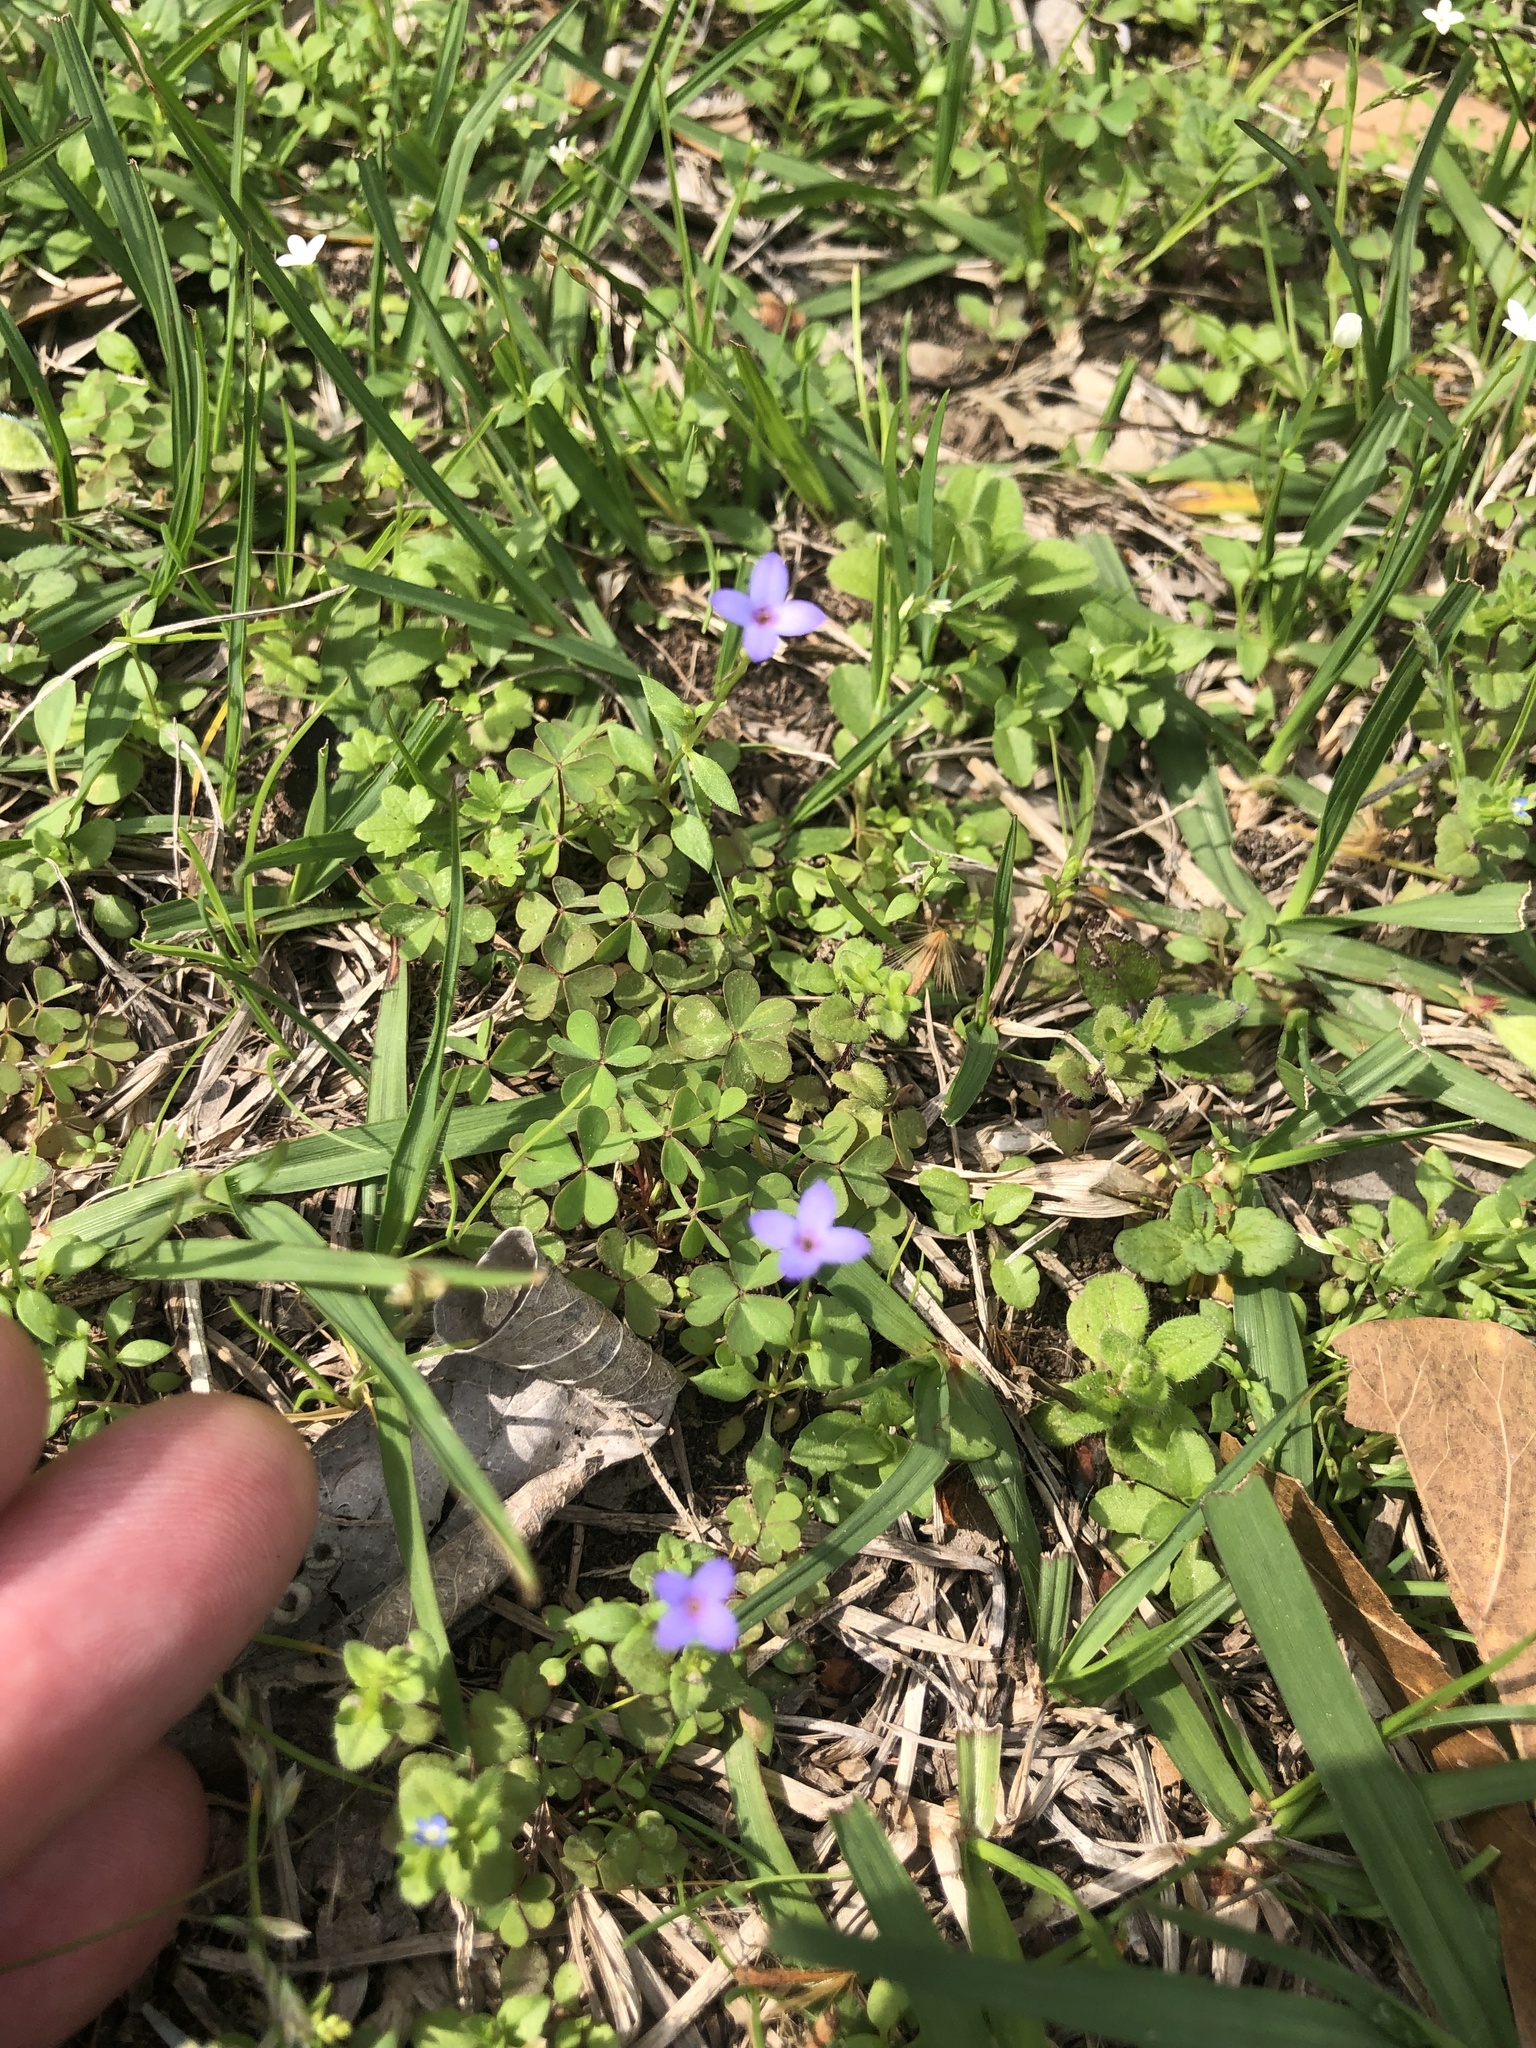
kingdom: Plantae
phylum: Tracheophyta
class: Magnoliopsida
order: Gentianales
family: Rubiaceae
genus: Houstonia
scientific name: Houstonia pusilla
